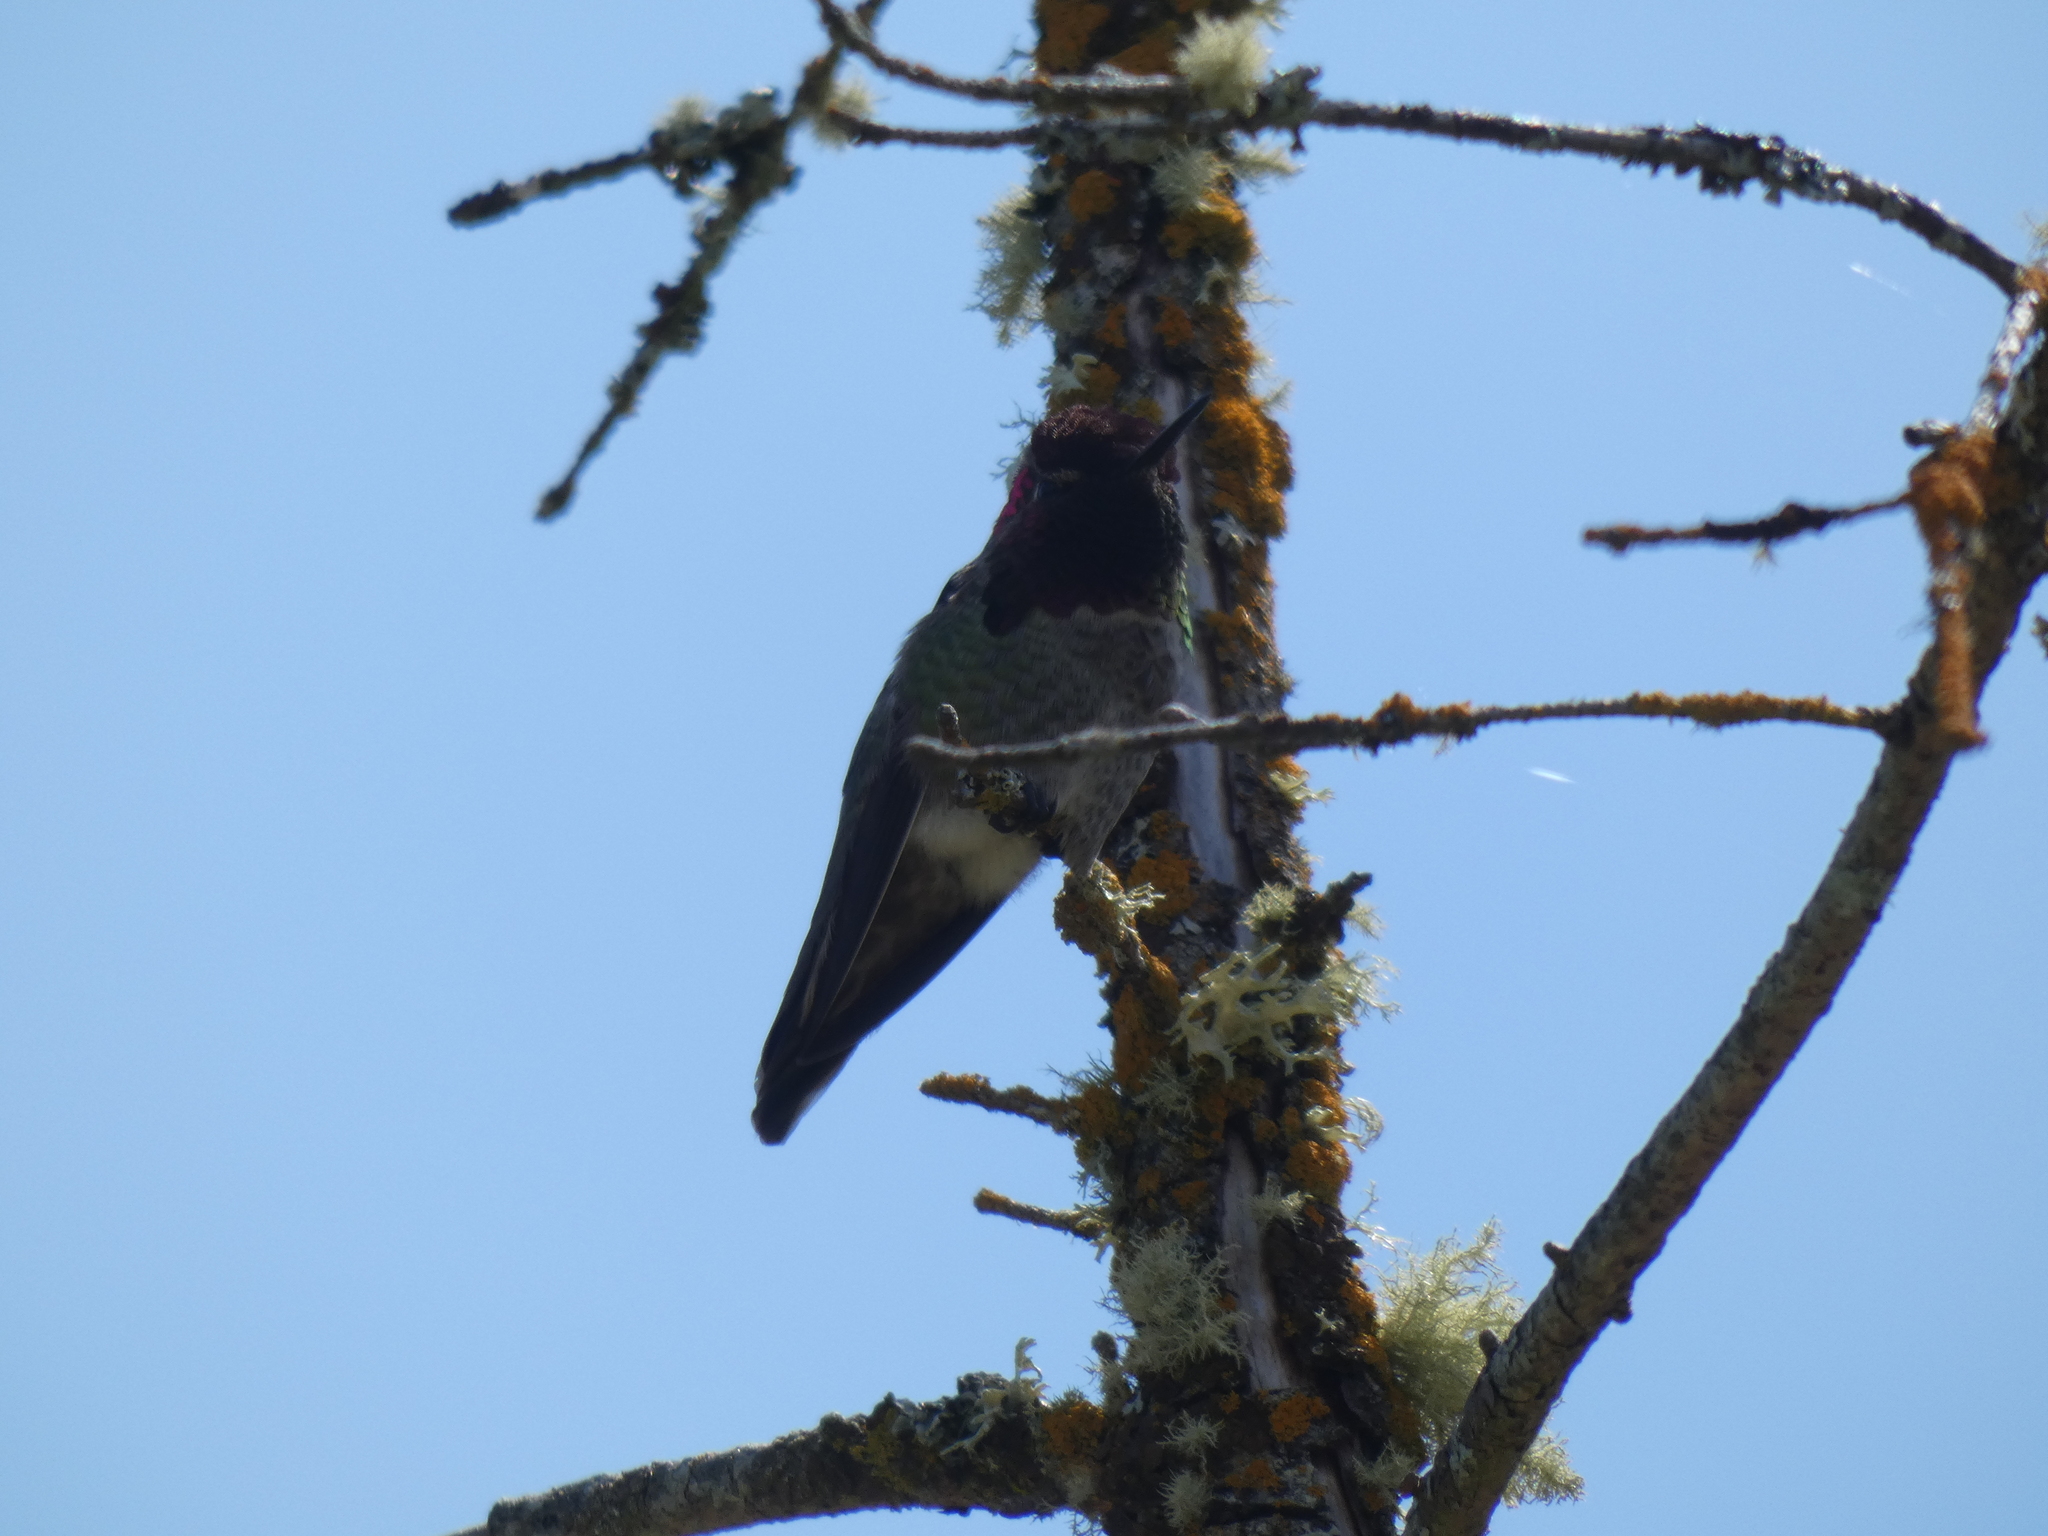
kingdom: Animalia
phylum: Chordata
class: Aves
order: Apodiformes
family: Trochilidae
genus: Calypte
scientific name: Calypte anna
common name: Anna's hummingbird
